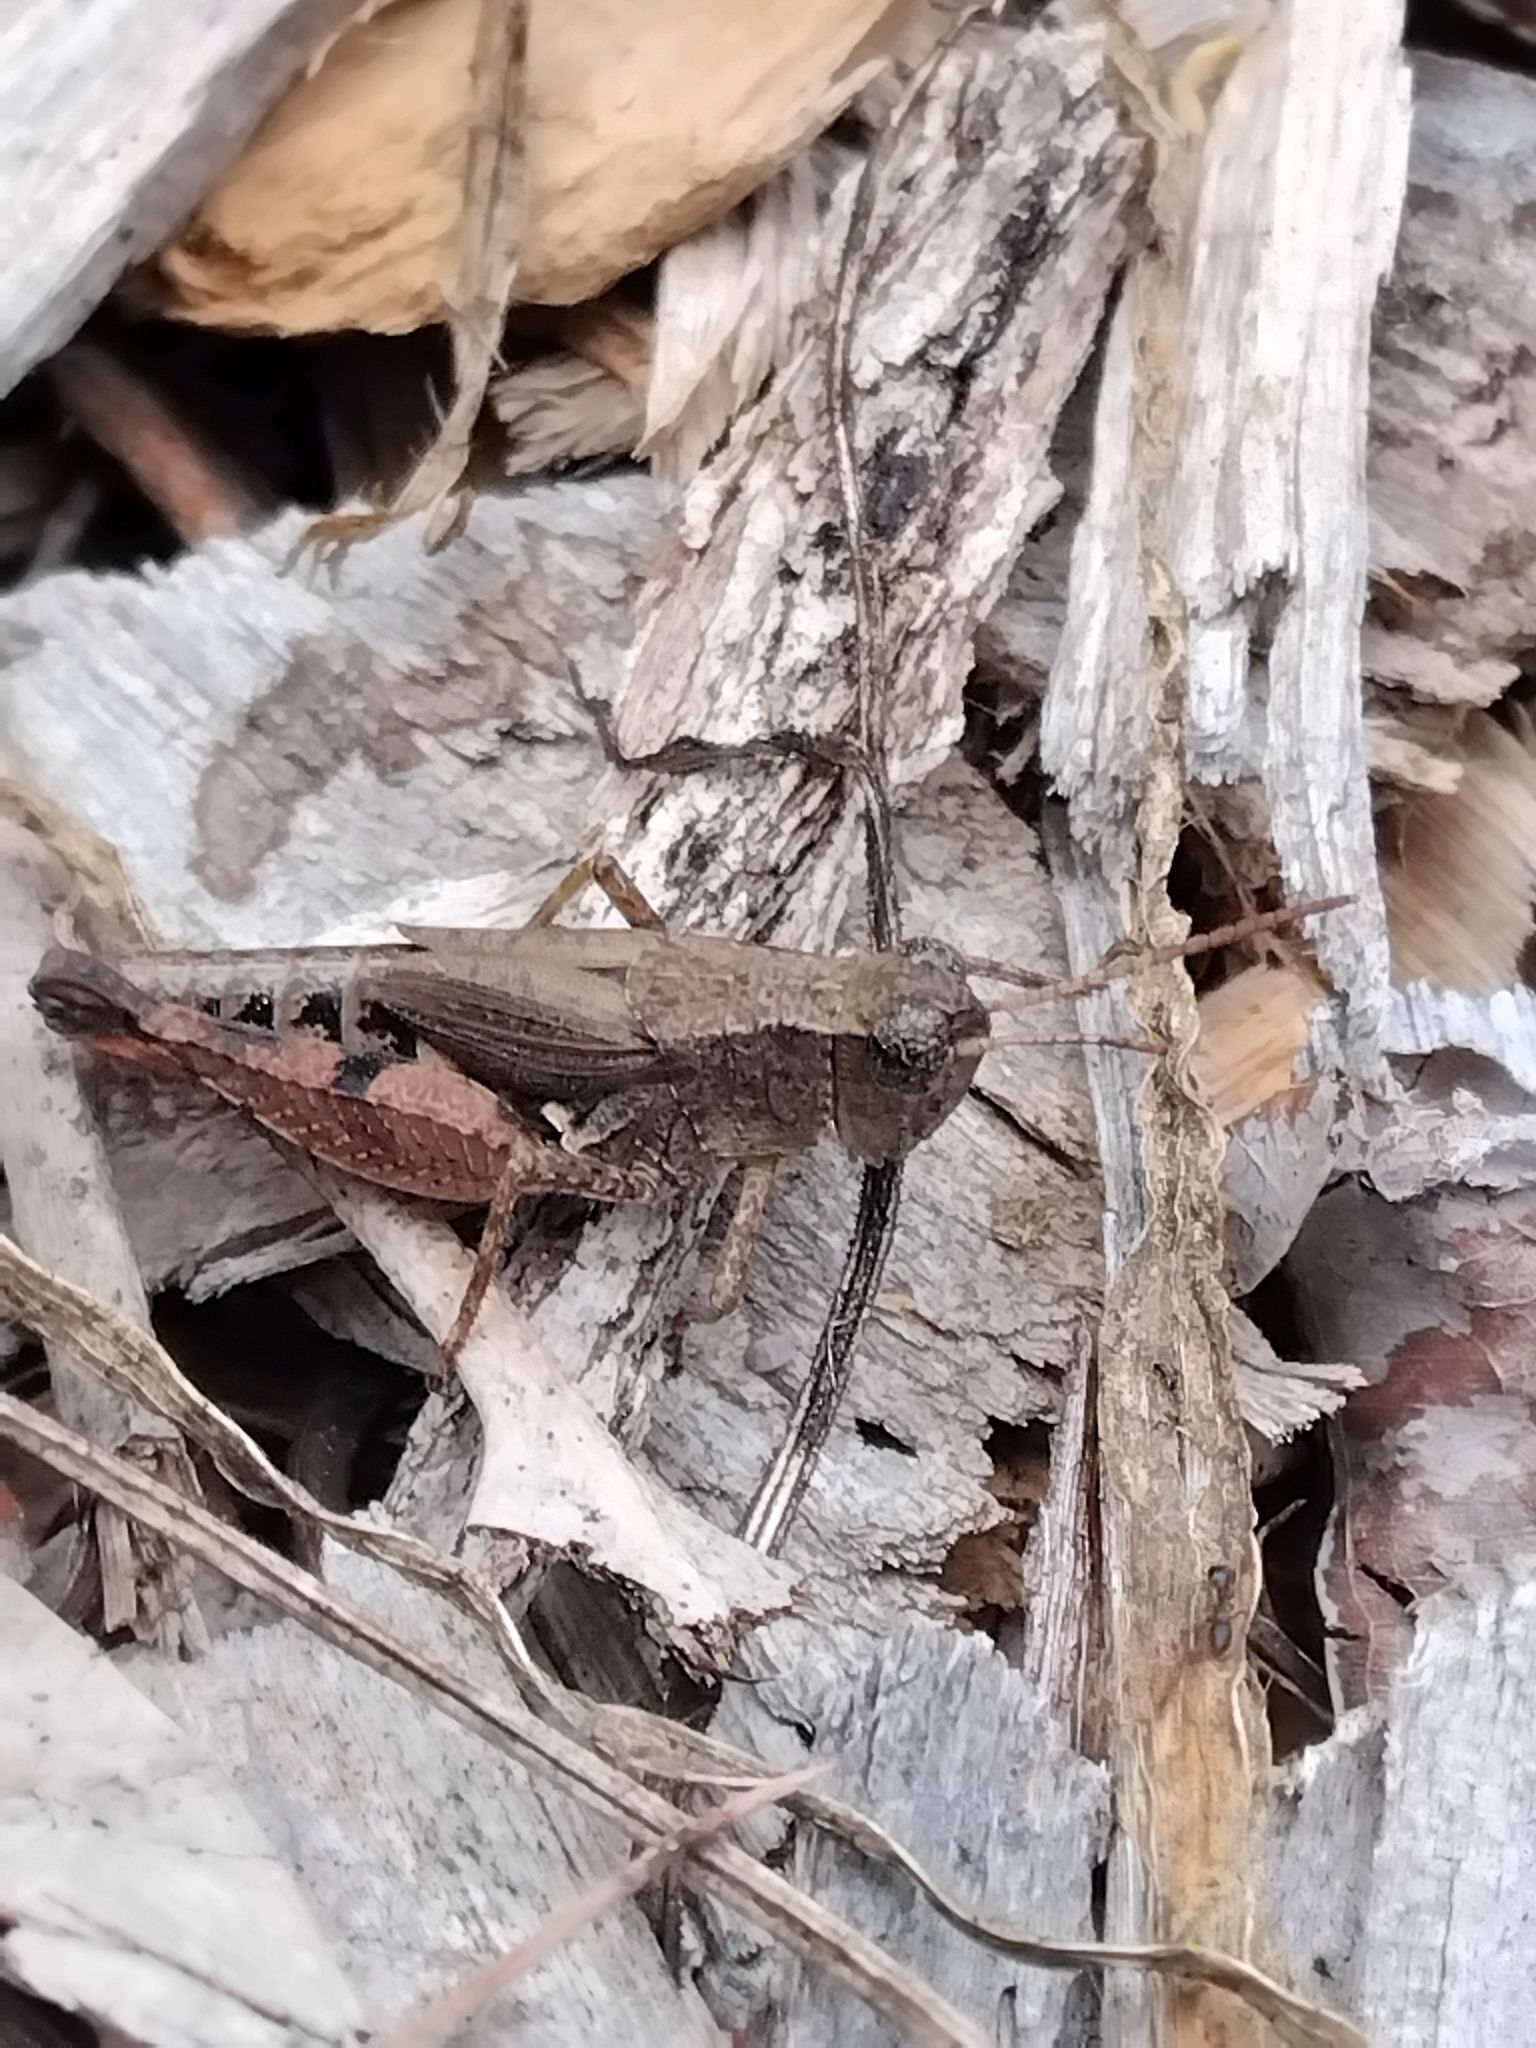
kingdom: Animalia
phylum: Arthropoda
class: Insecta
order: Orthoptera
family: Acrididae
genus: Phaulacridium
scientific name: Phaulacridium vittatum
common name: Wingless grasshopper
